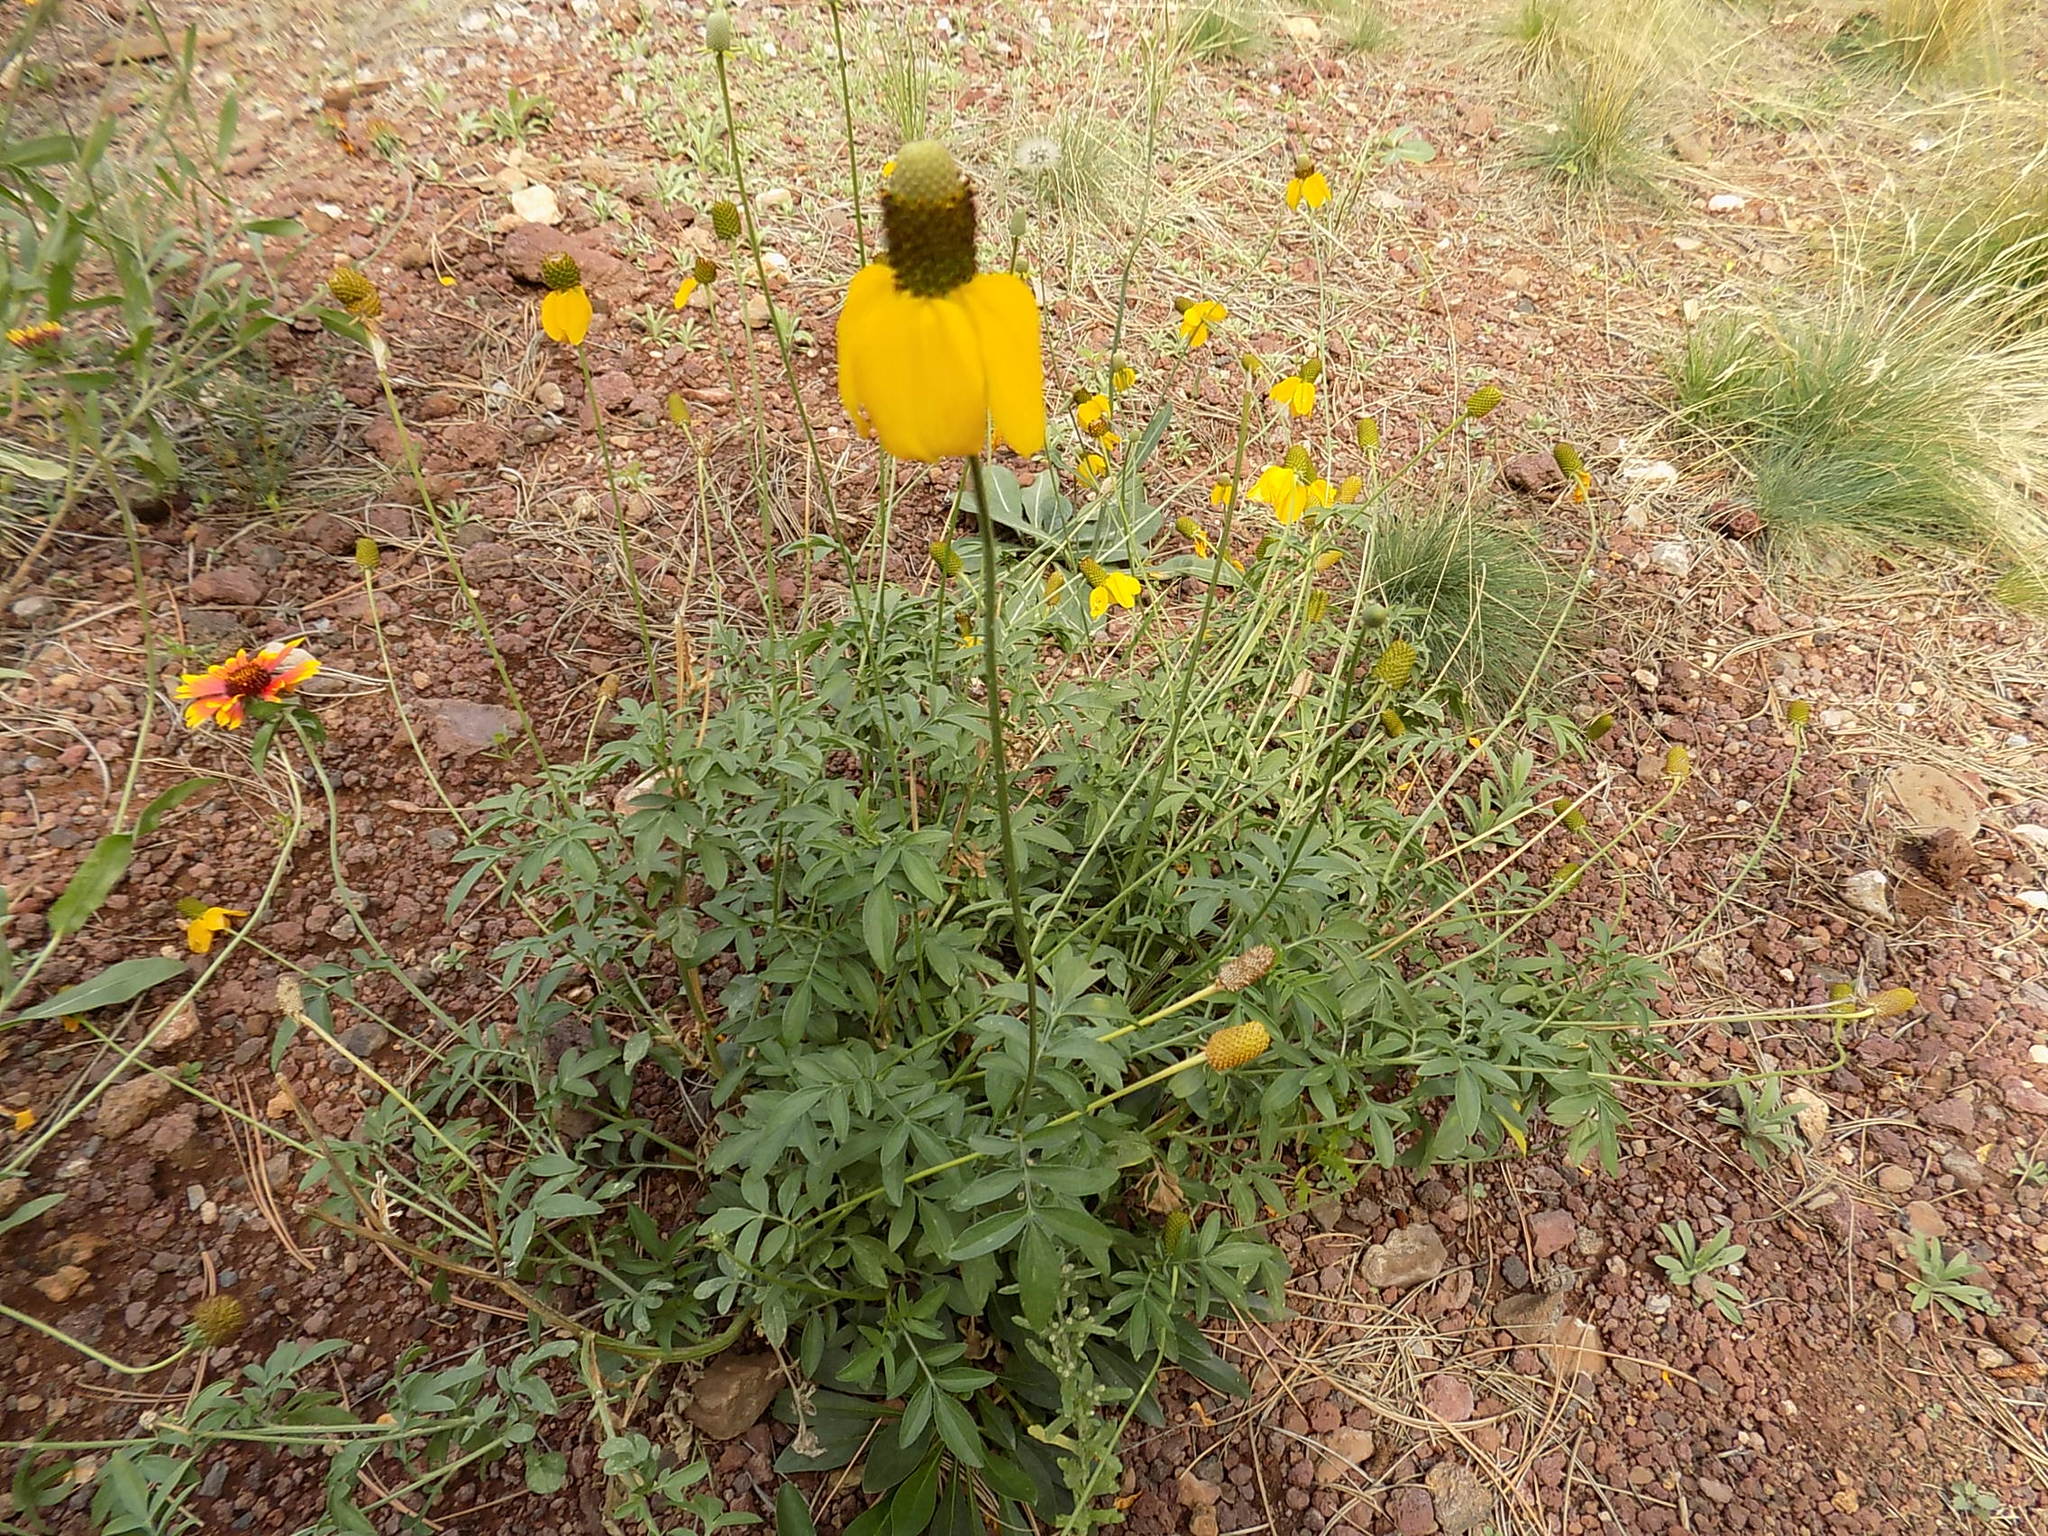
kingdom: Plantae
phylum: Tracheophyta
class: Magnoliopsida
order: Asterales
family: Asteraceae
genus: Ratibida
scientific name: Ratibida columnifera
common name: Prairie coneflower
